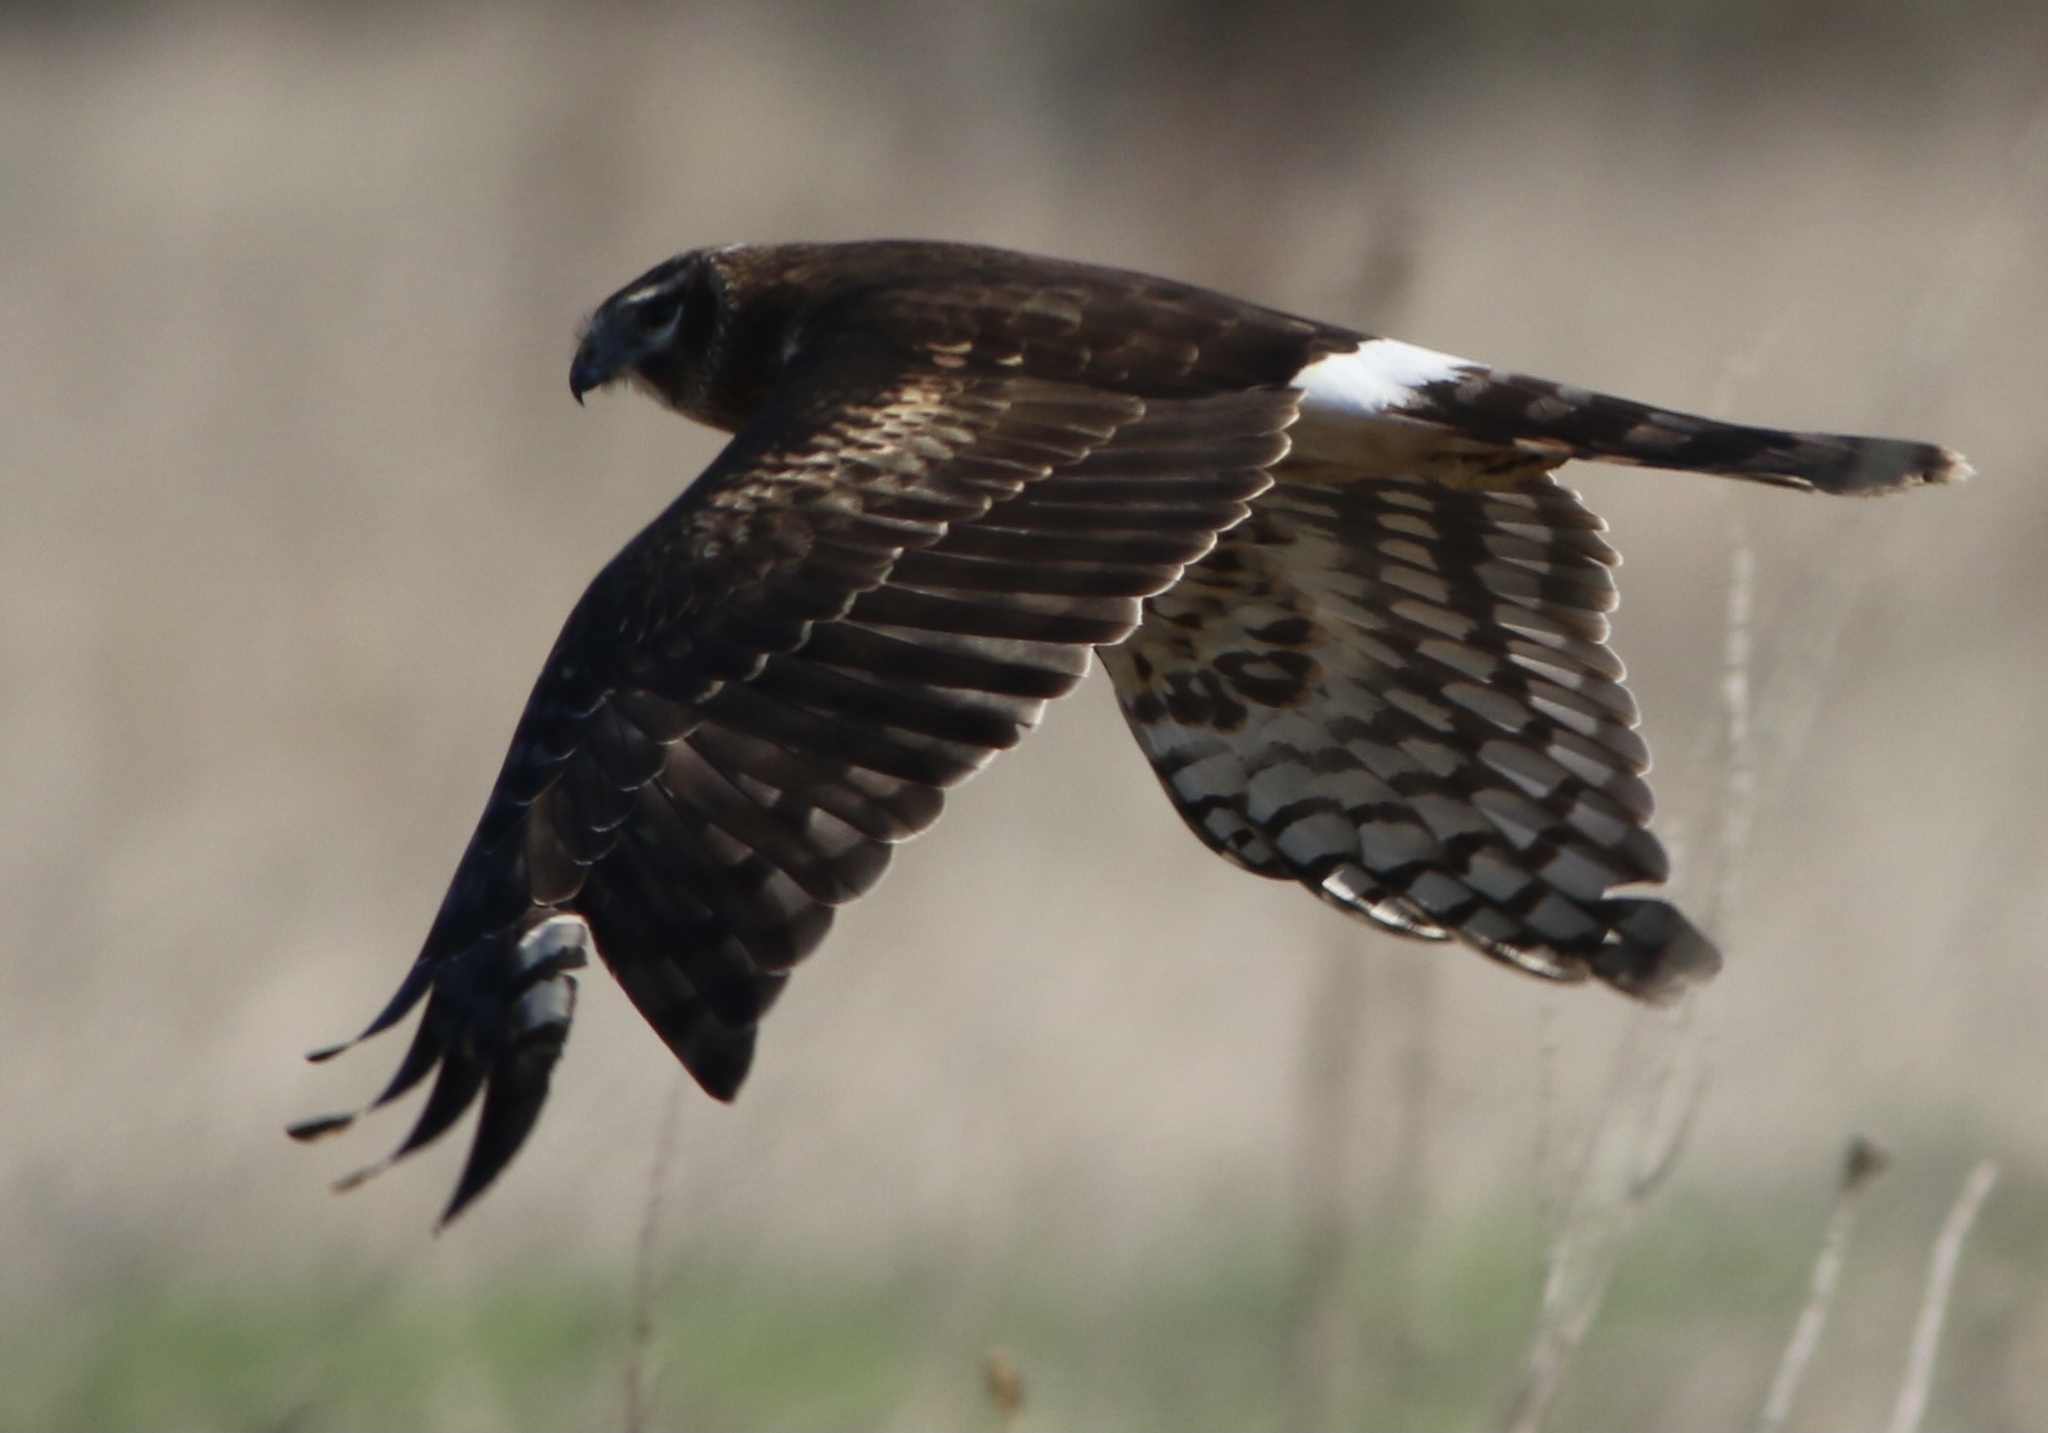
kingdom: Animalia
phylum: Chordata
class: Aves
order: Accipitriformes
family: Accipitridae
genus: Circus
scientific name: Circus cyaneus
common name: Hen harrier
